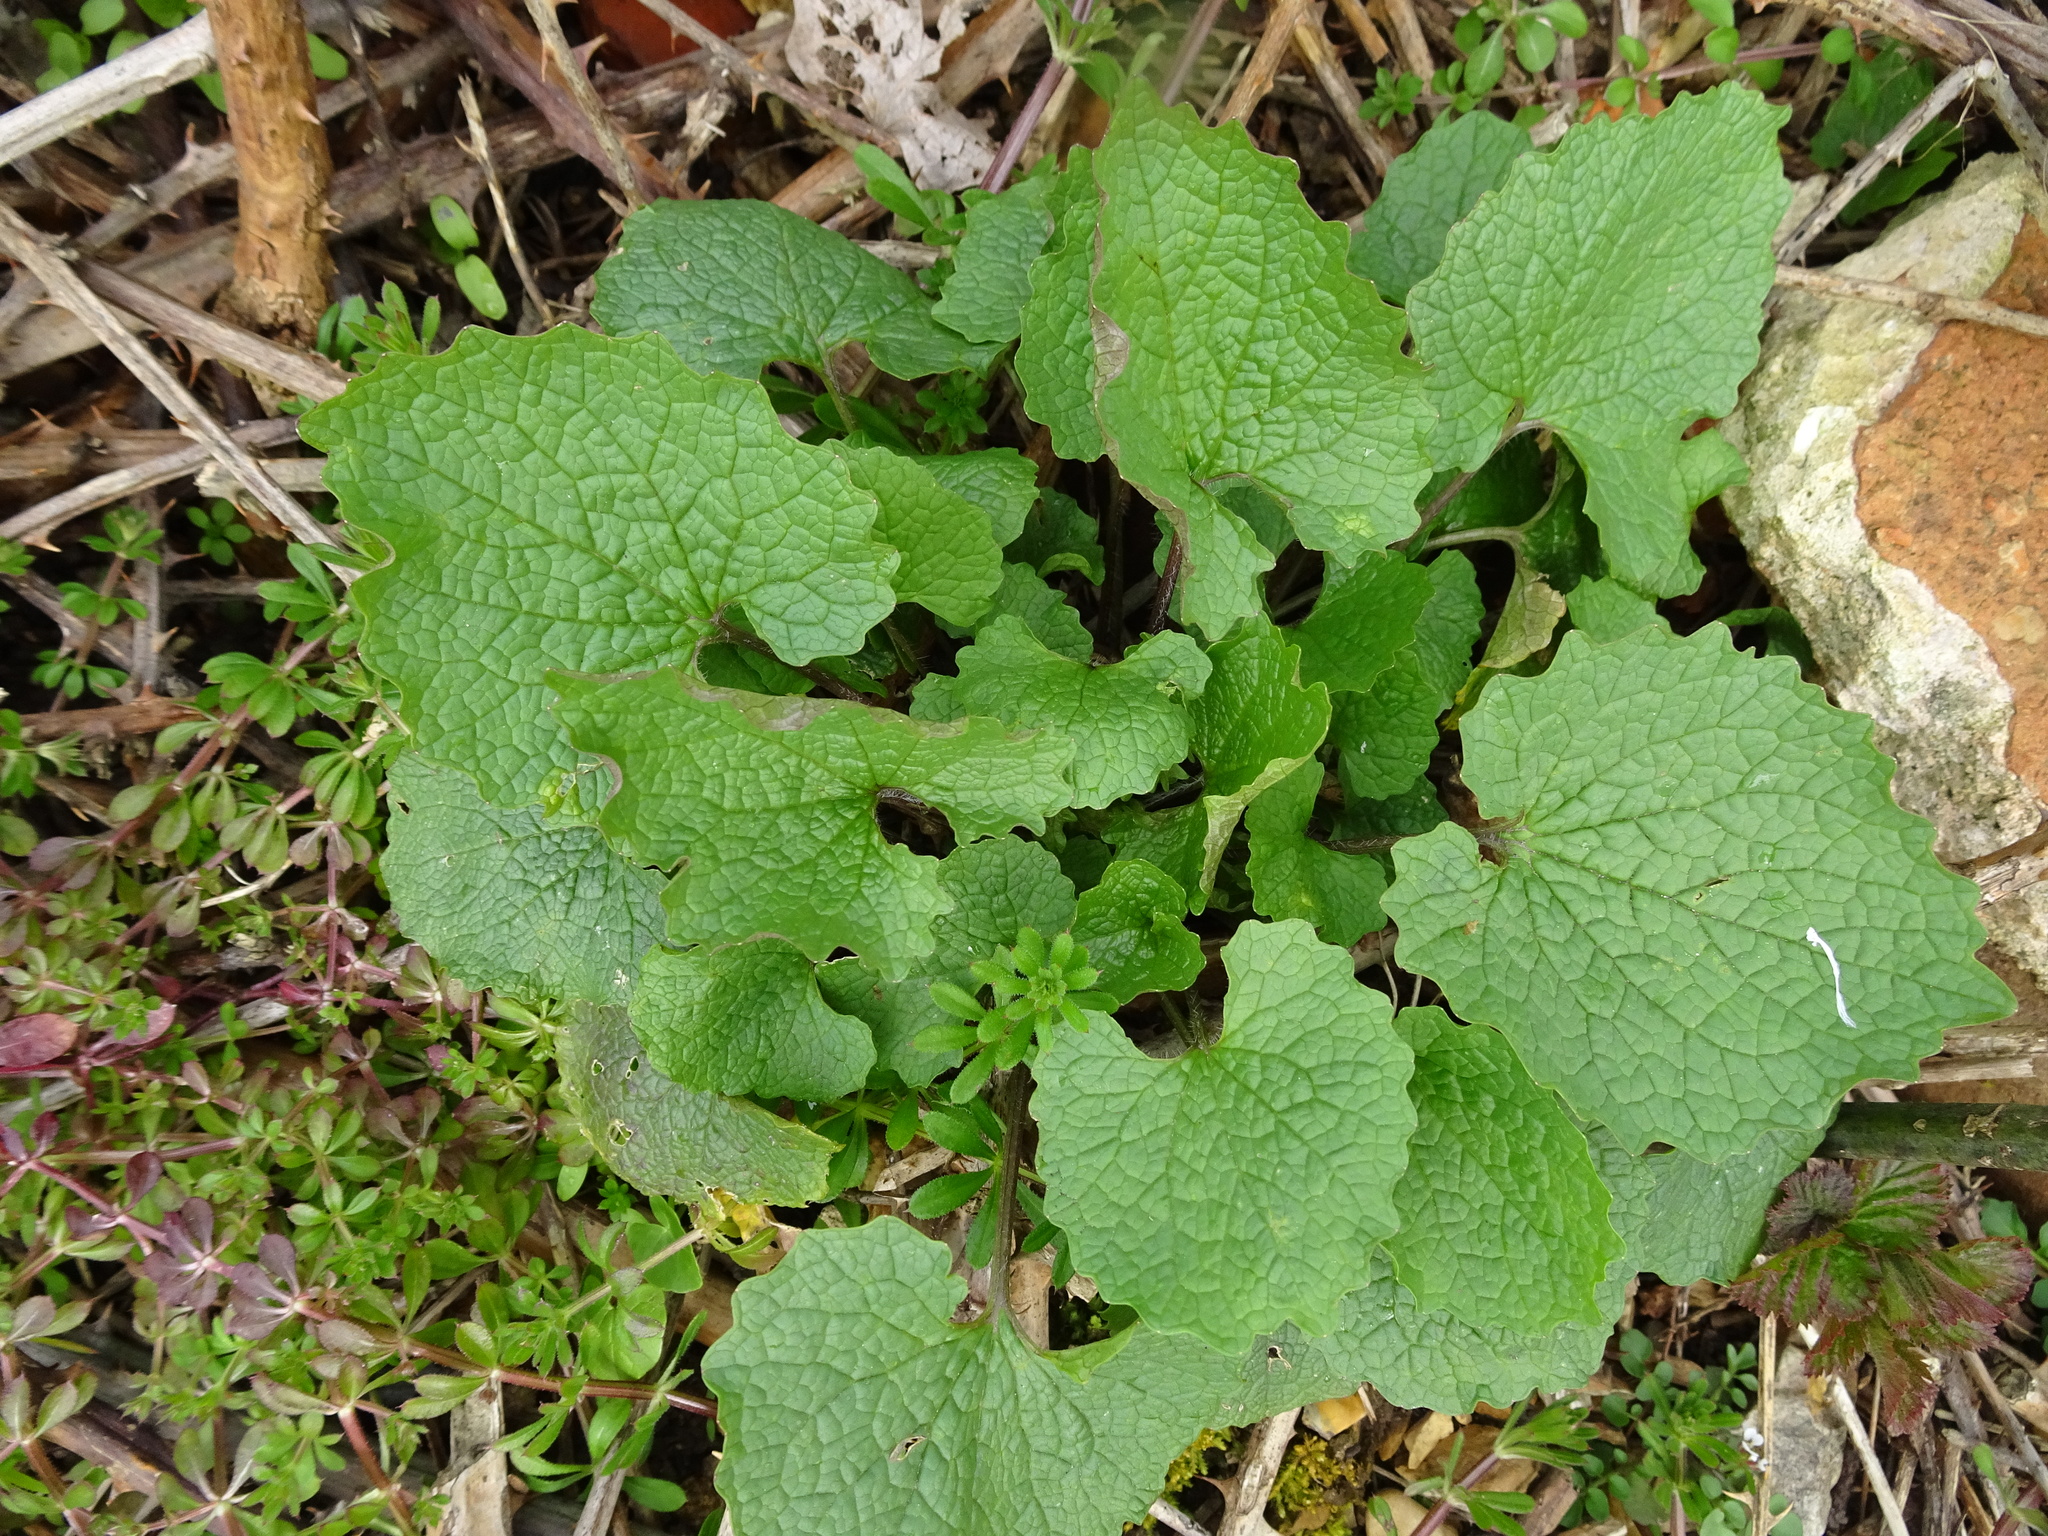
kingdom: Plantae
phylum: Tracheophyta
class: Magnoliopsida
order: Brassicales
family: Brassicaceae
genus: Alliaria
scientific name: Alliaria petiolata
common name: Garlic mustard
